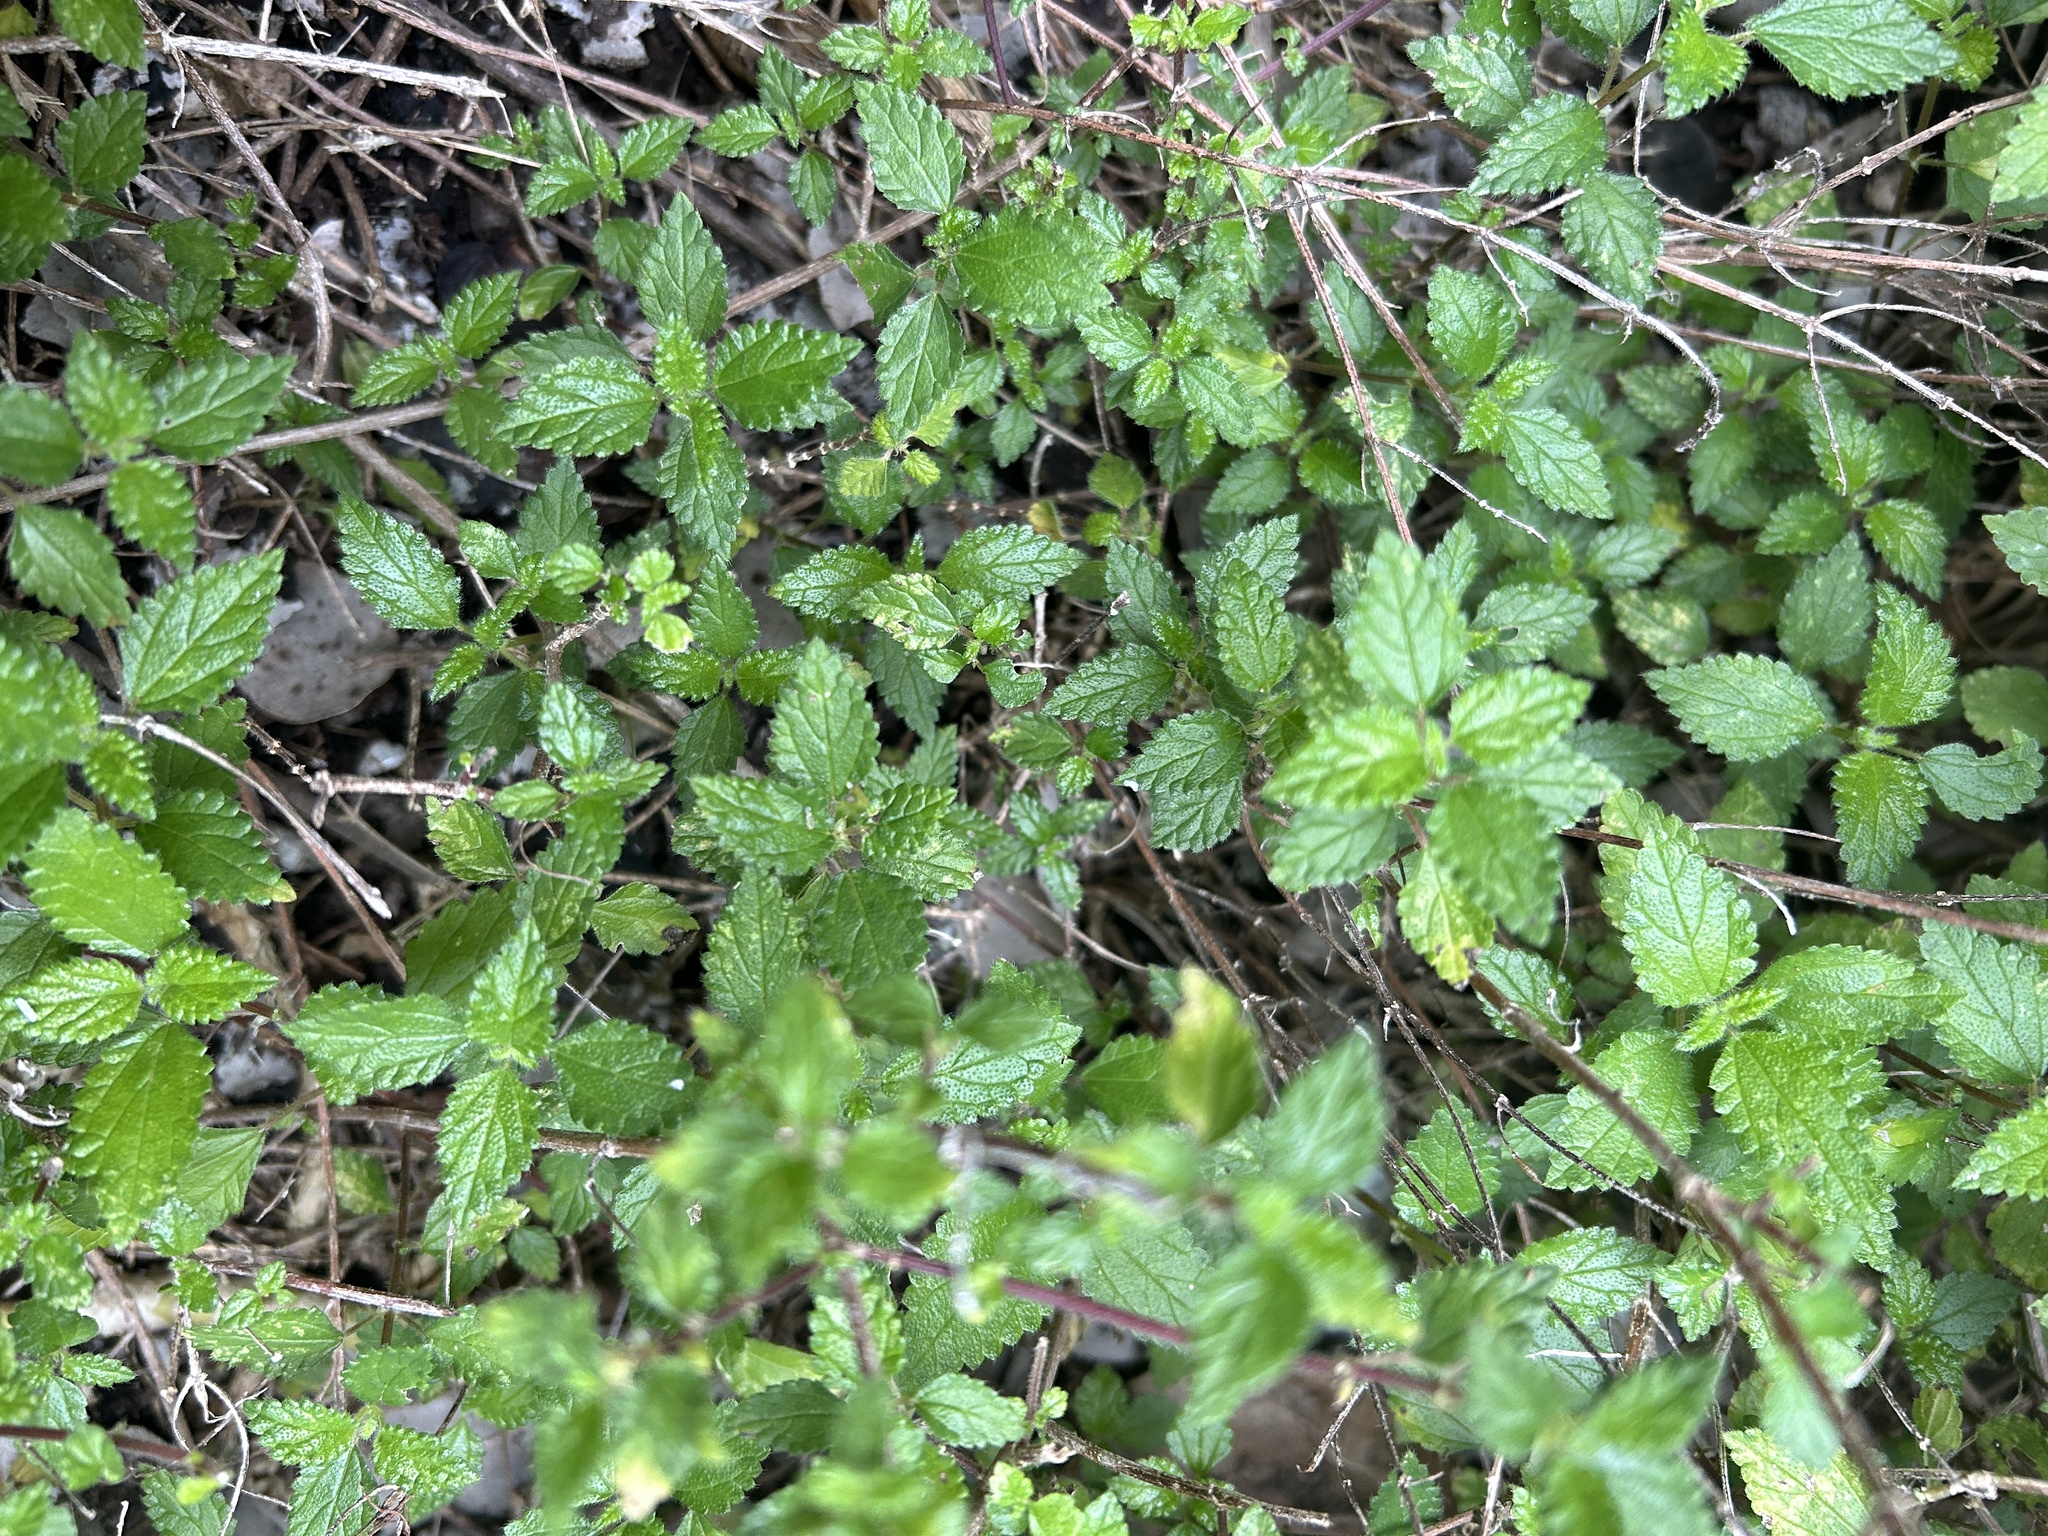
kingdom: Plantae
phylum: Tracheophyta
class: Magnoliopsida
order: Rosales
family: Urticaceae
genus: Didymodoxa
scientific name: Didymodoxa capensis
